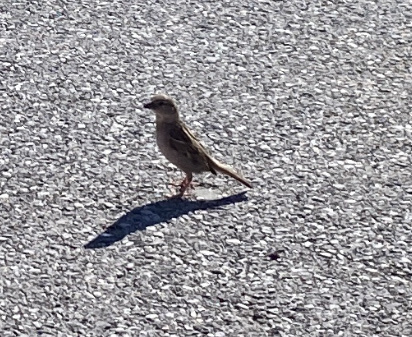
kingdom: Animalia
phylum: Chordata
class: Aves
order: Passeriformes
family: Passeridae
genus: Passer
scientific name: Passer domesticus
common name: House sparrow
